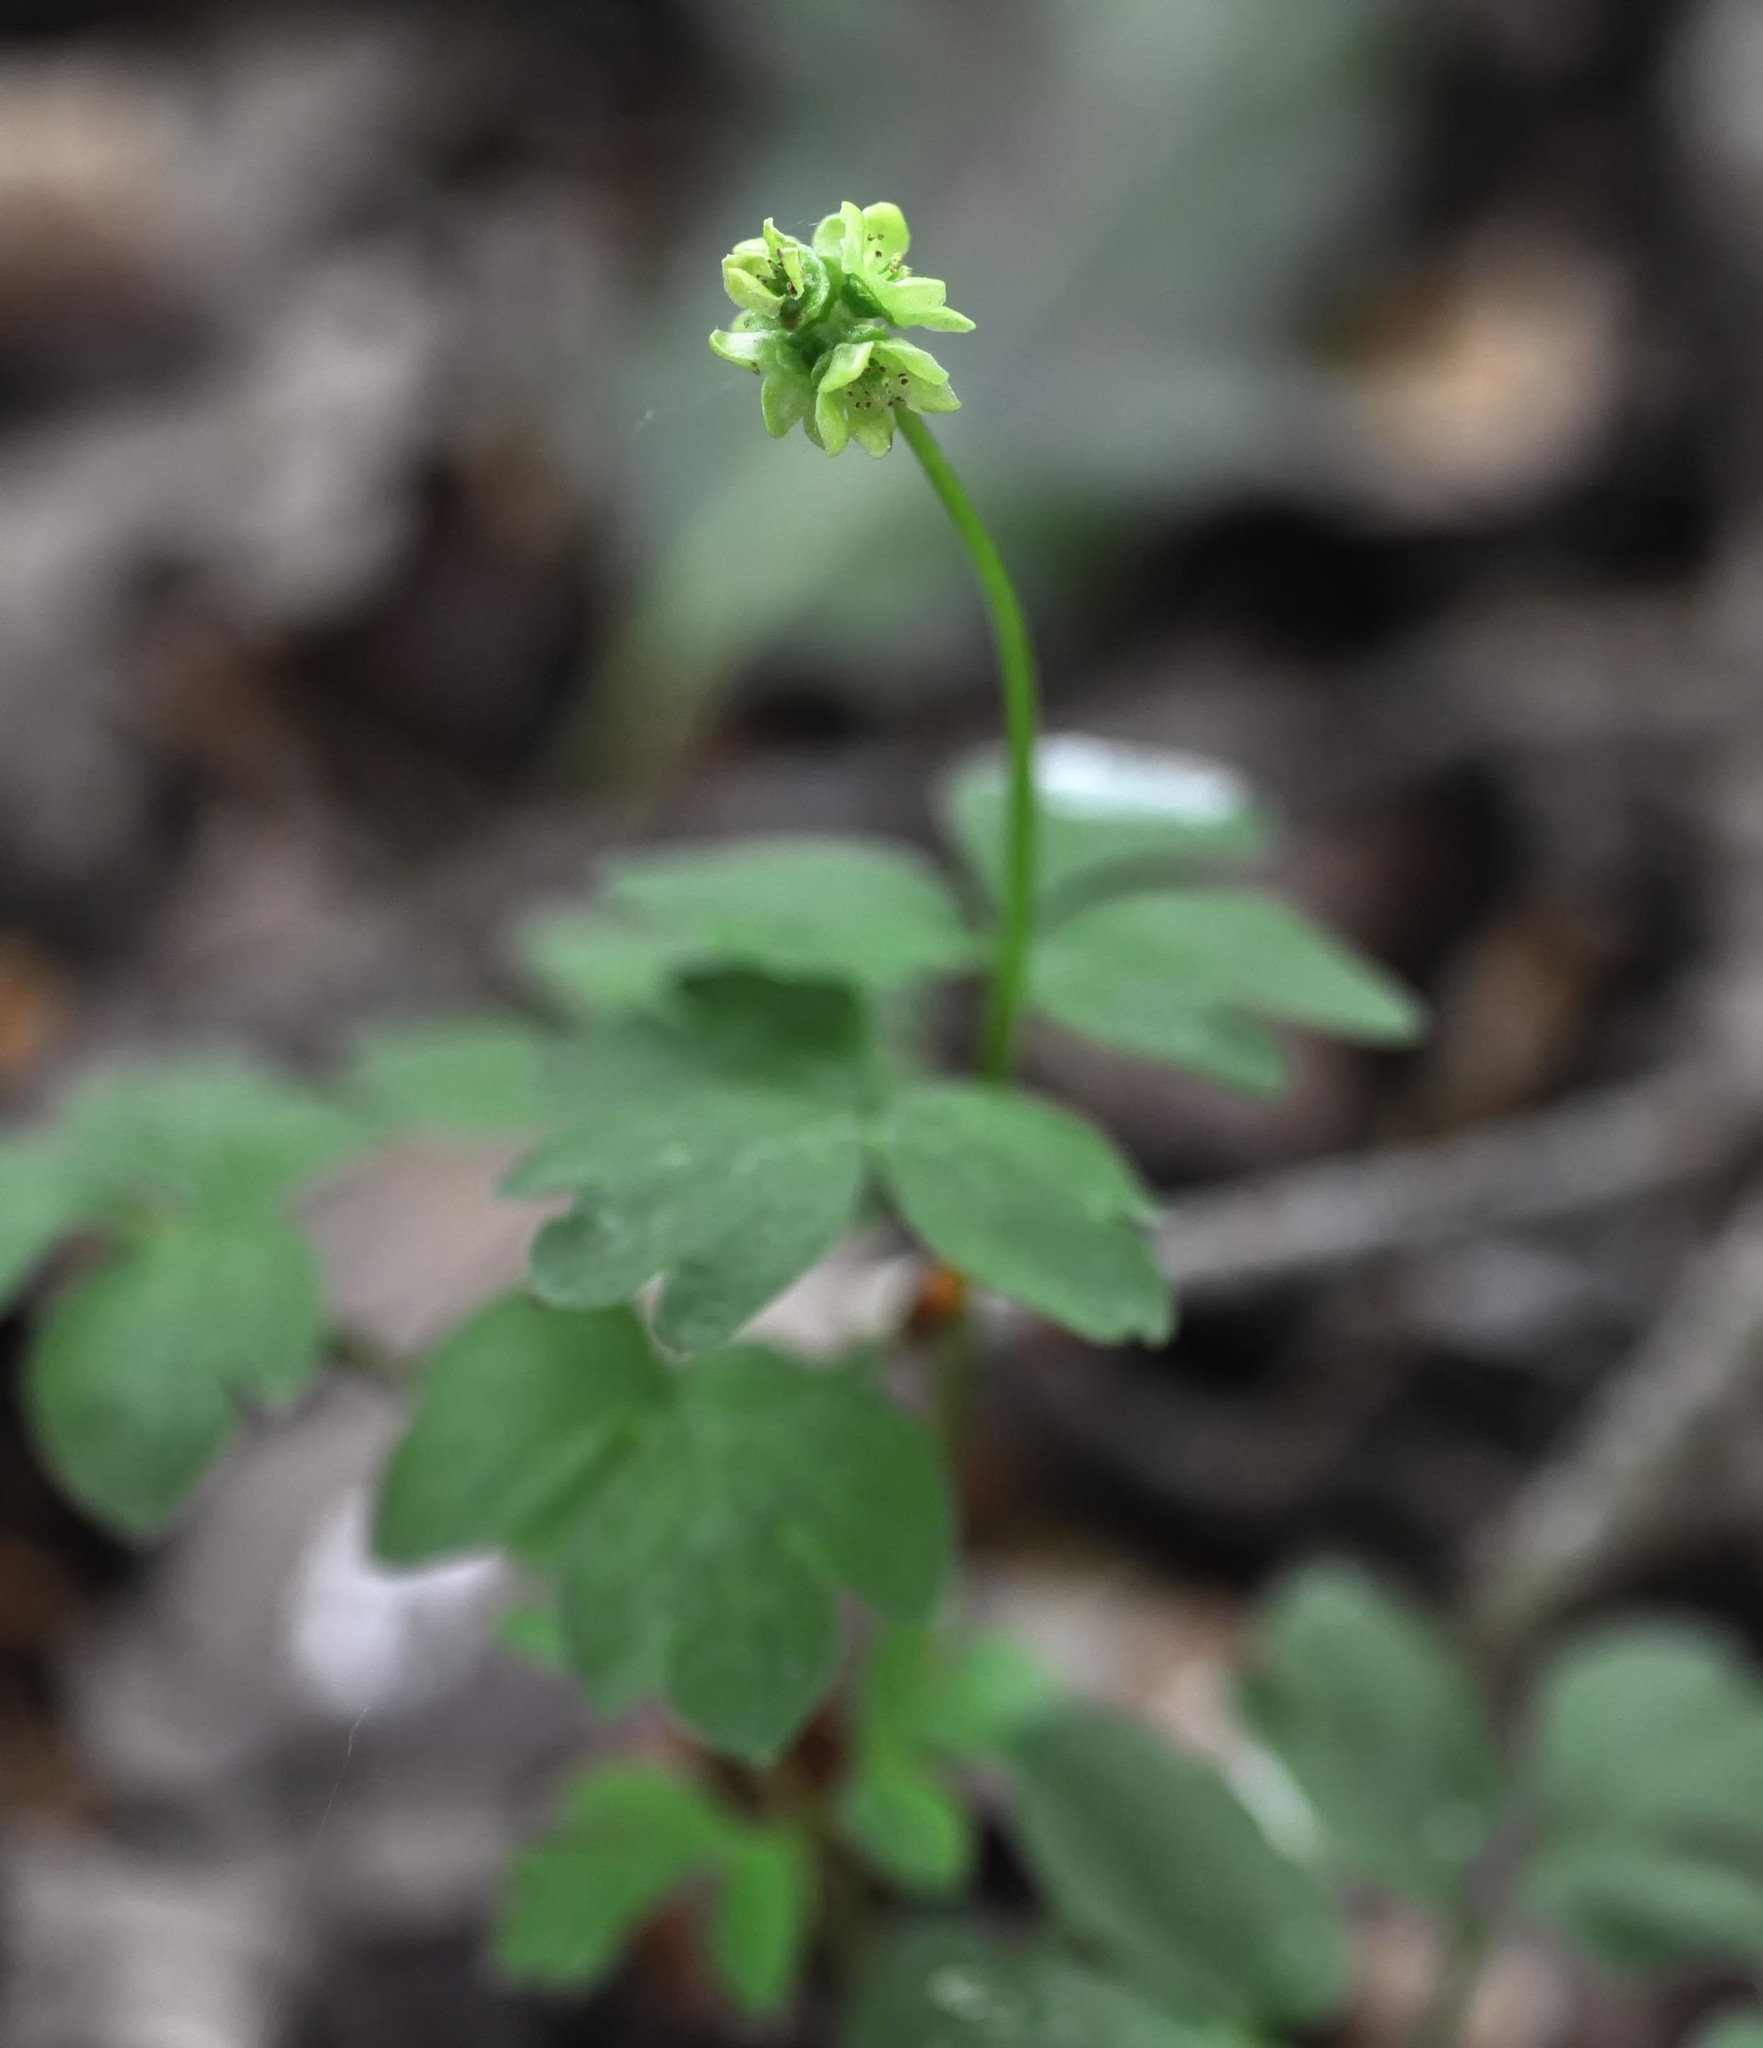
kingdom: Plantae
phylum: Tracheophyta
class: Magnoliopsida
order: Dipsacales
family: Viburnaceae
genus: Adoxa
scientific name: Adoxa moschatellina
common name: Moschatel
